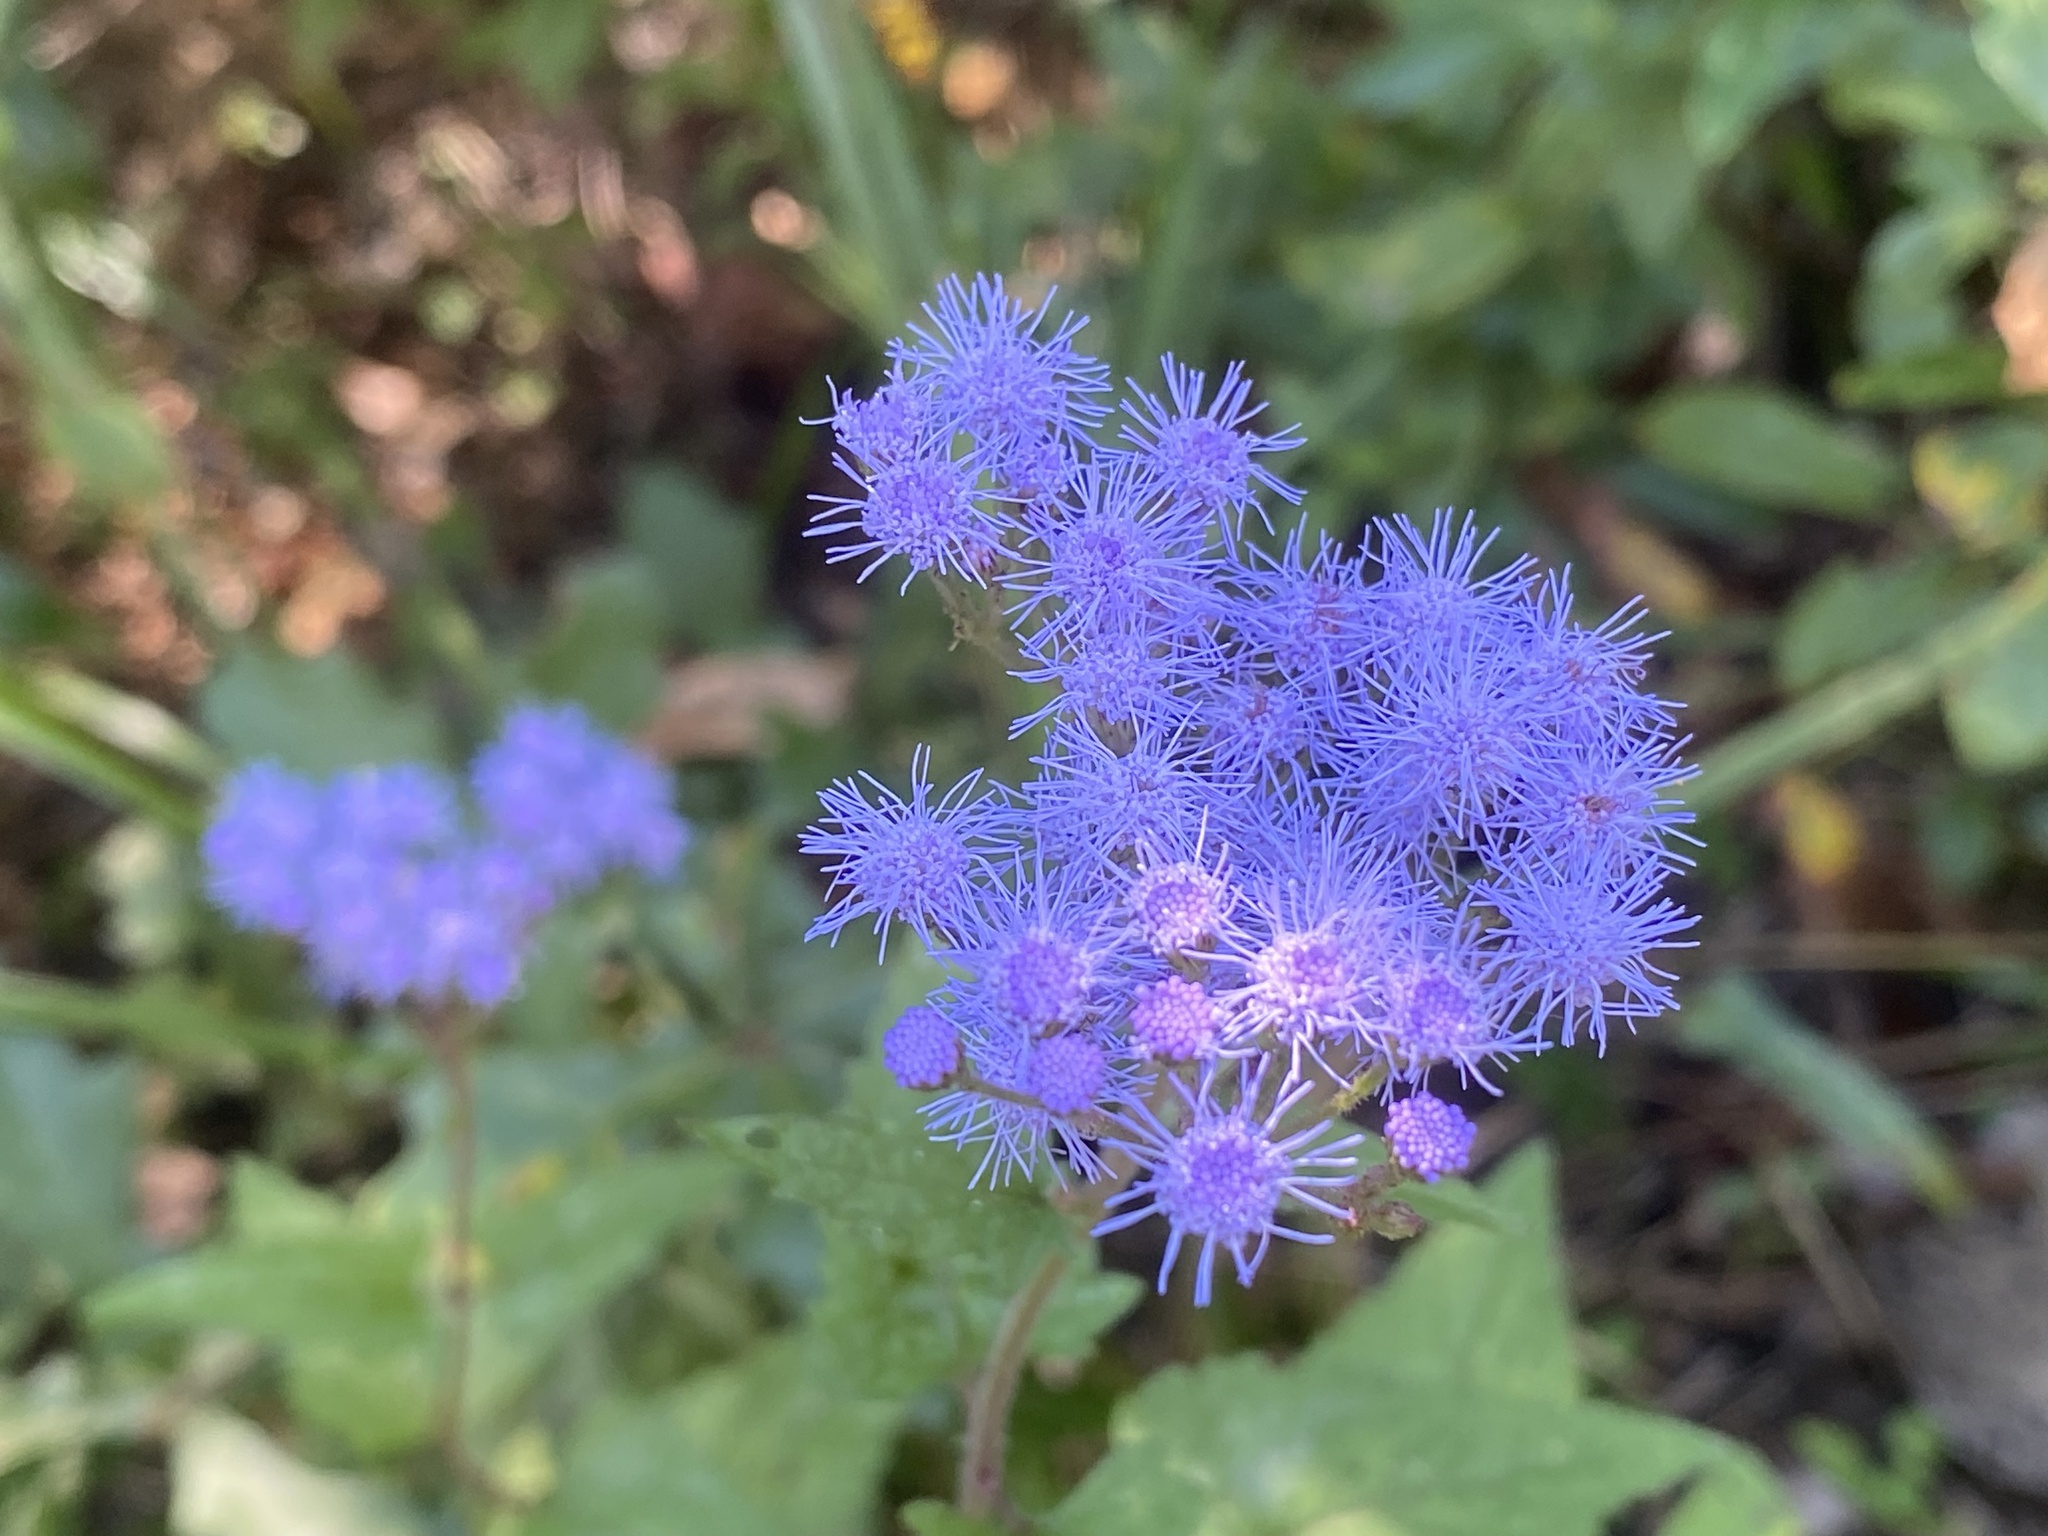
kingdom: Plantae
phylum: Tracheophyta
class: Magnoliopsida
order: Asterales
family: Asteraceae
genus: Conoclinium
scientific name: Conoclinium coelestinum
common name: Blue mistflower
